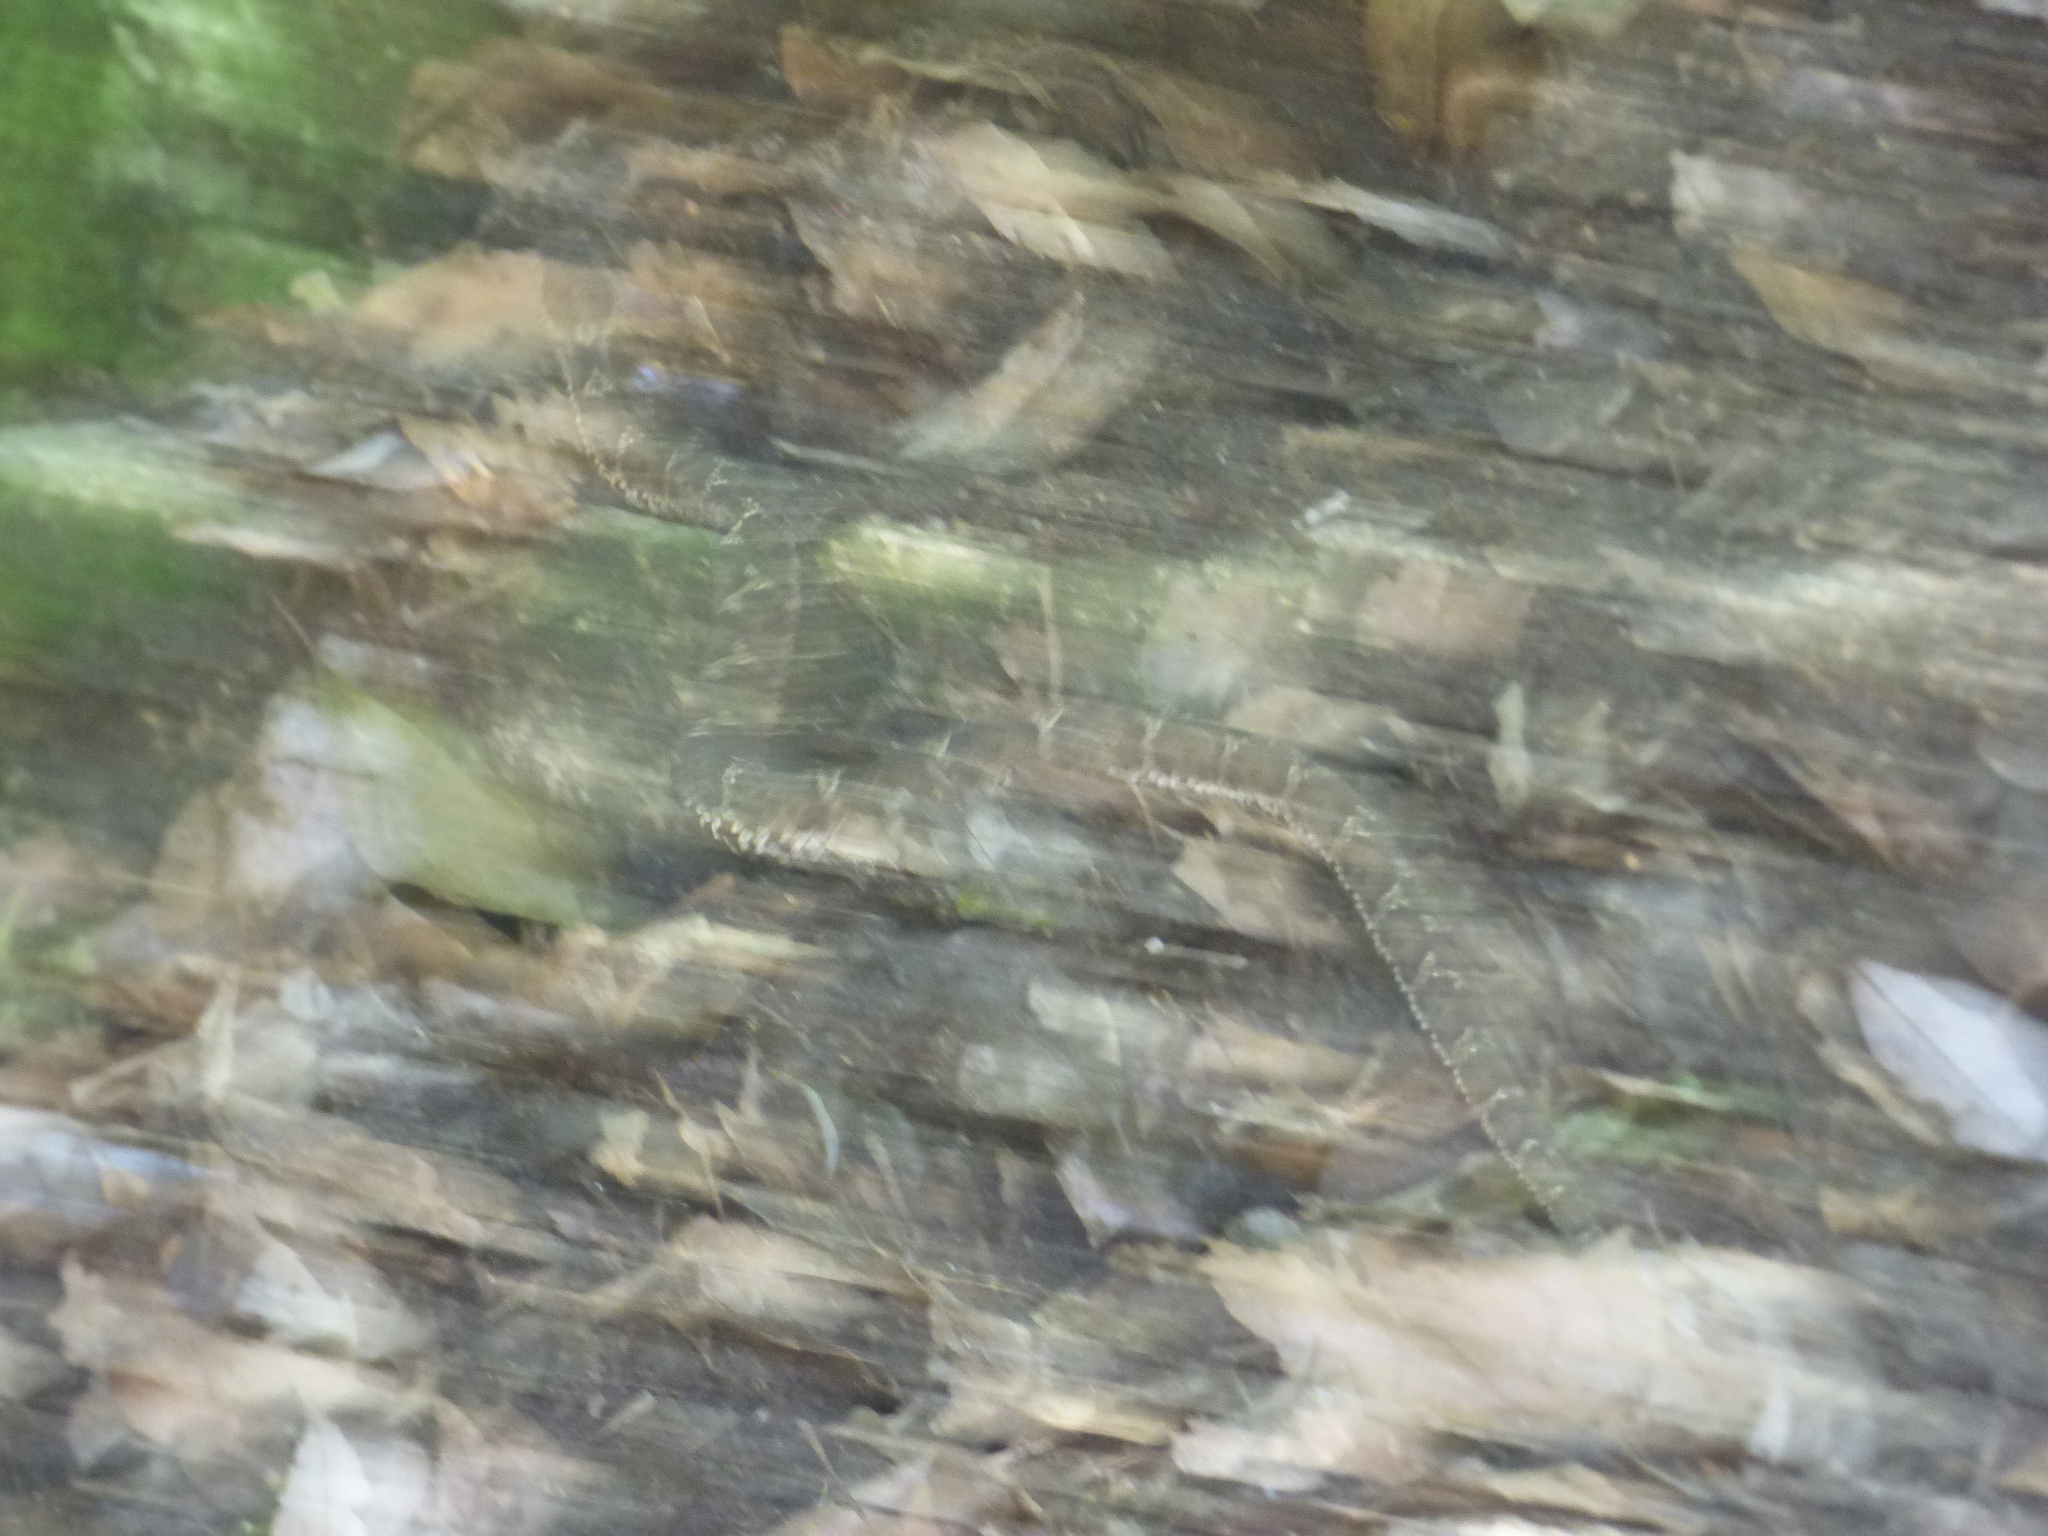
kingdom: Animalia
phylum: Chordata
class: Squamata
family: Viperidae
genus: Gloydius
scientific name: Gloydius blomhoffii
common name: Mamushi
